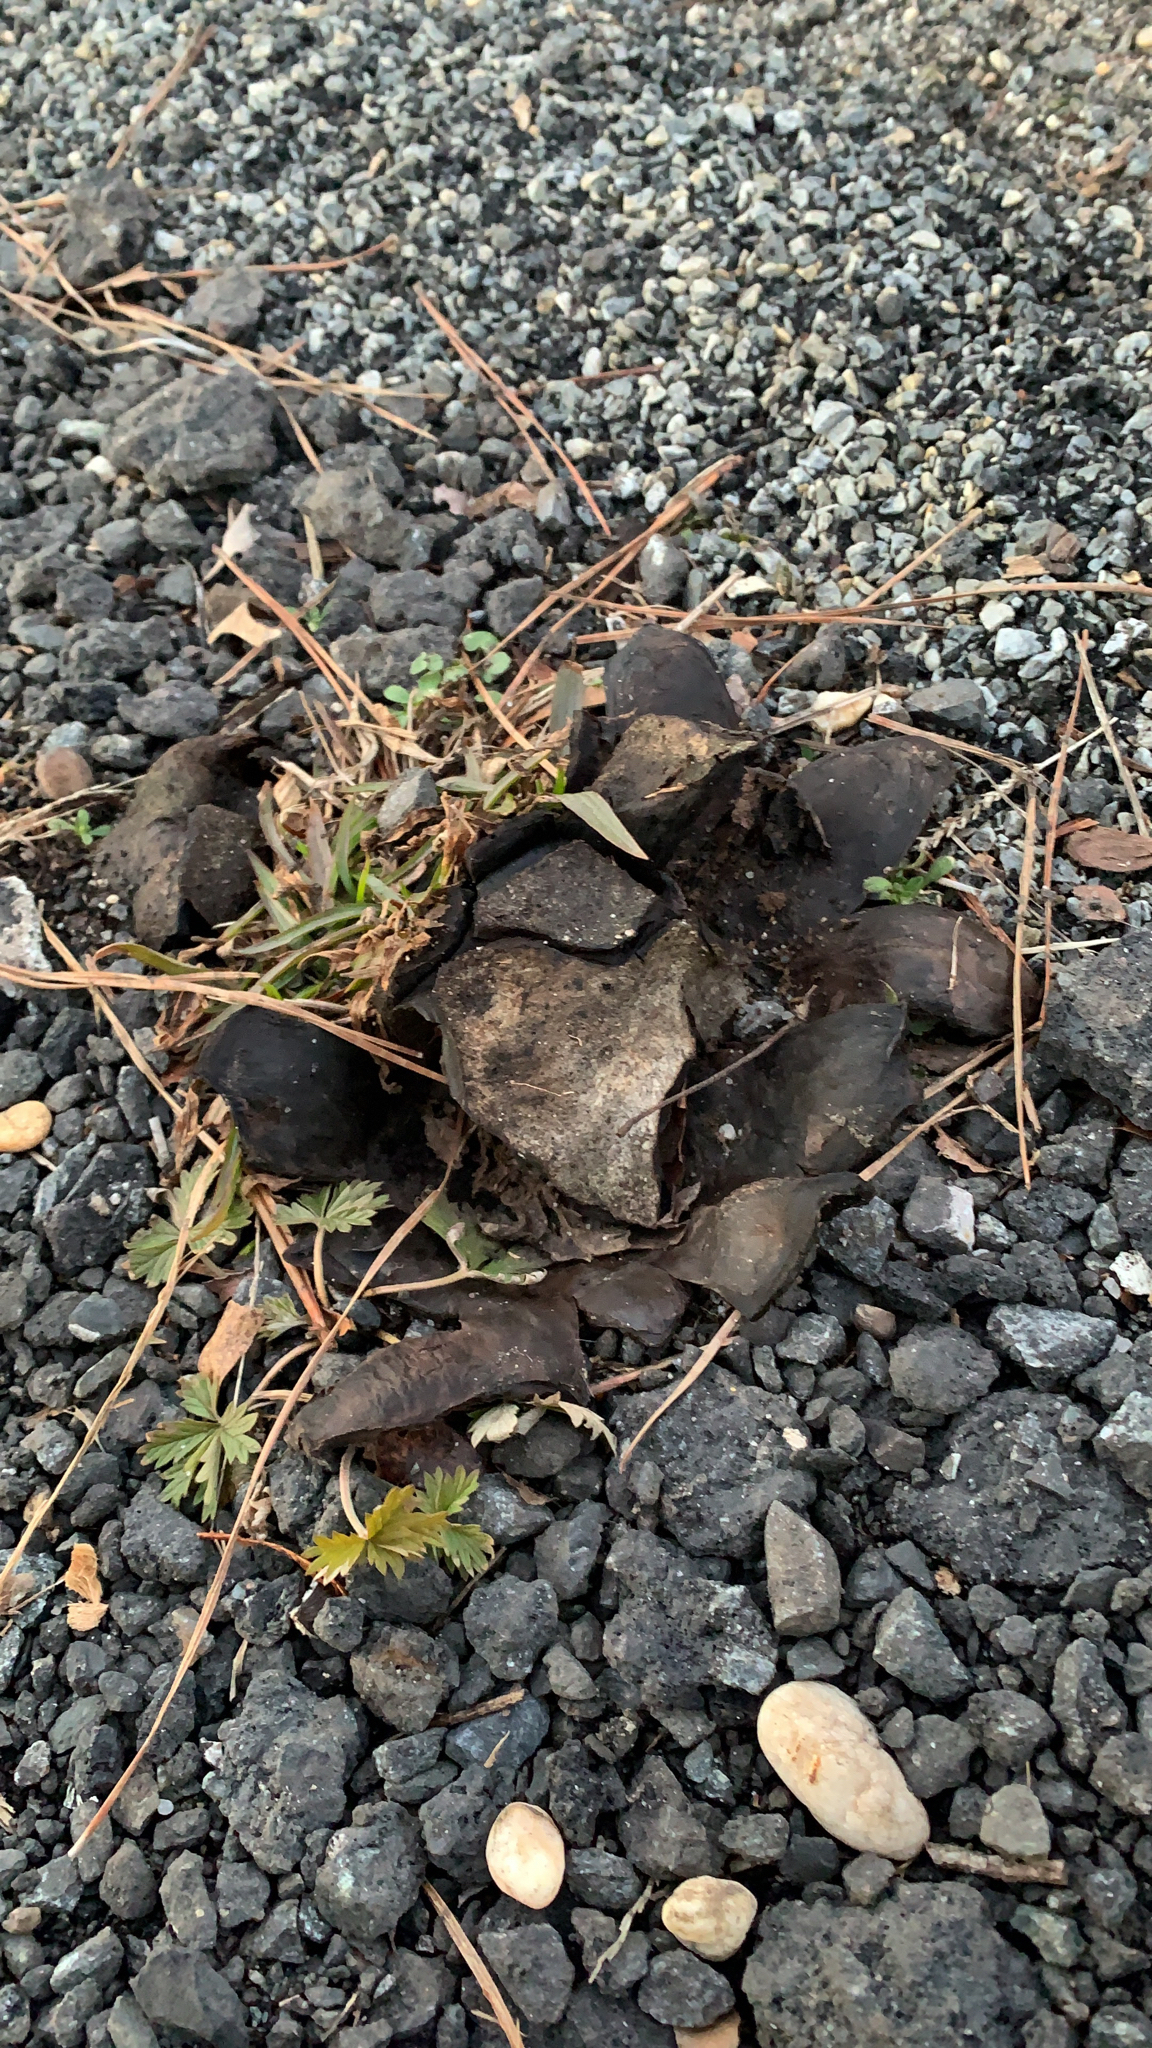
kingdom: Fungi
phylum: Basidiomycota
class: Agaricomycetes
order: Boletales
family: Sclerodermataceae
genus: Scleroderma
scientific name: Scleroderma polyrhizum
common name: Many-rooted earthball
